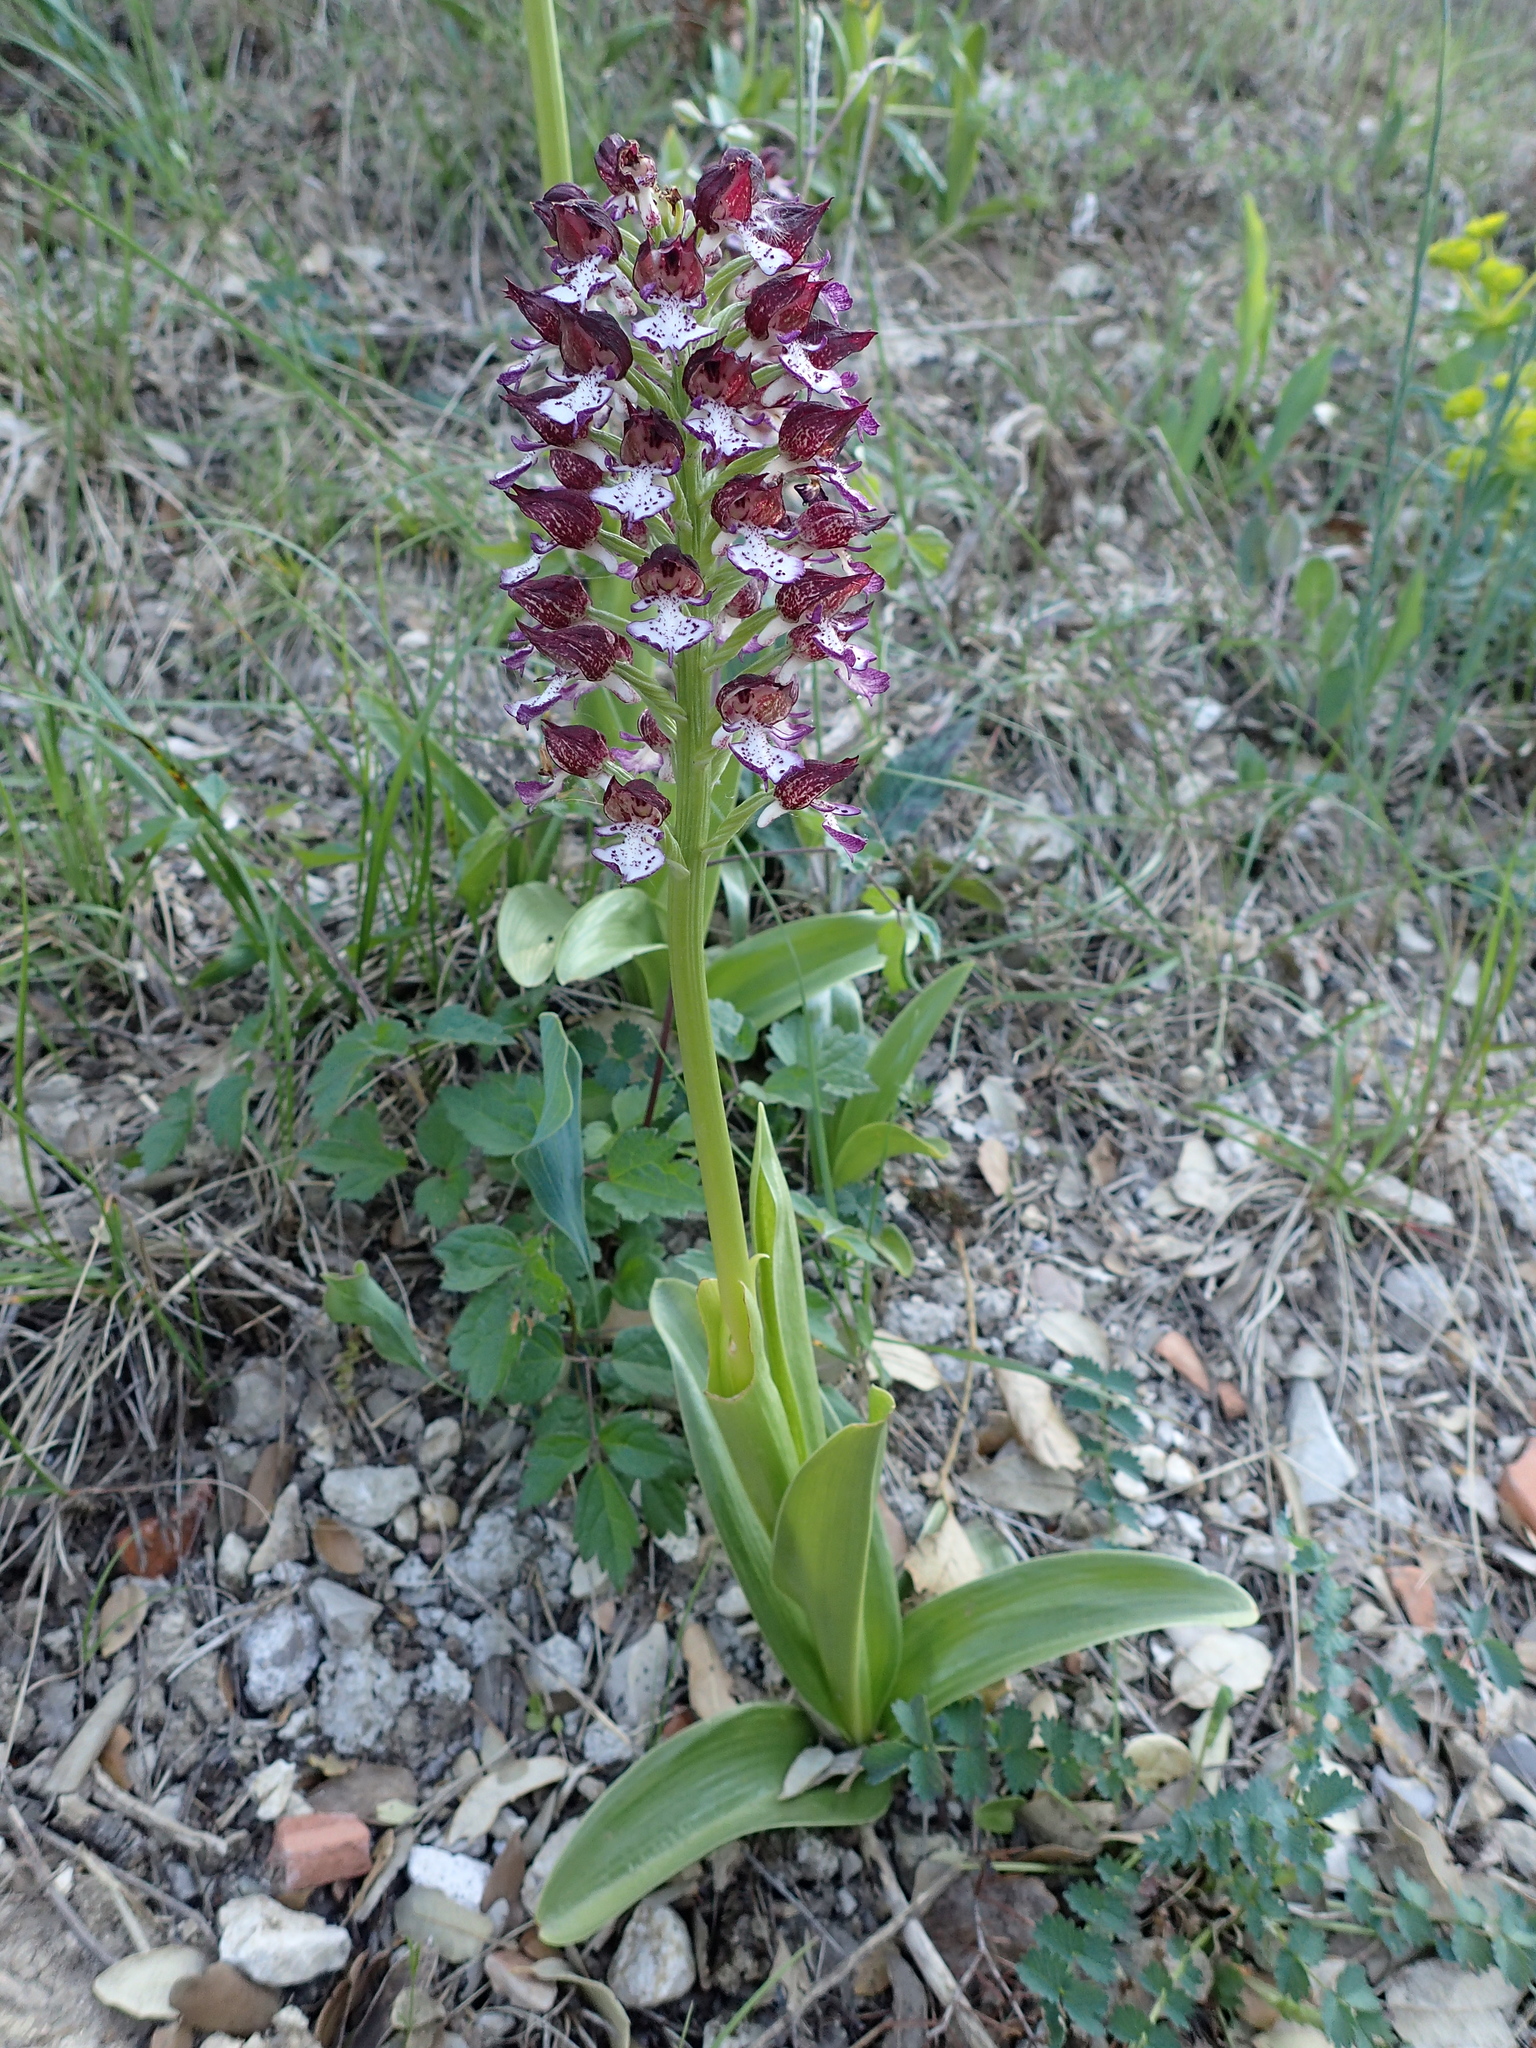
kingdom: Plantae
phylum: Tracheophyta
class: Liliopsida
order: Asparagales
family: Orchidaceae
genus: Orchis
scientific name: Orchis purpurea
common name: Lady orchid
